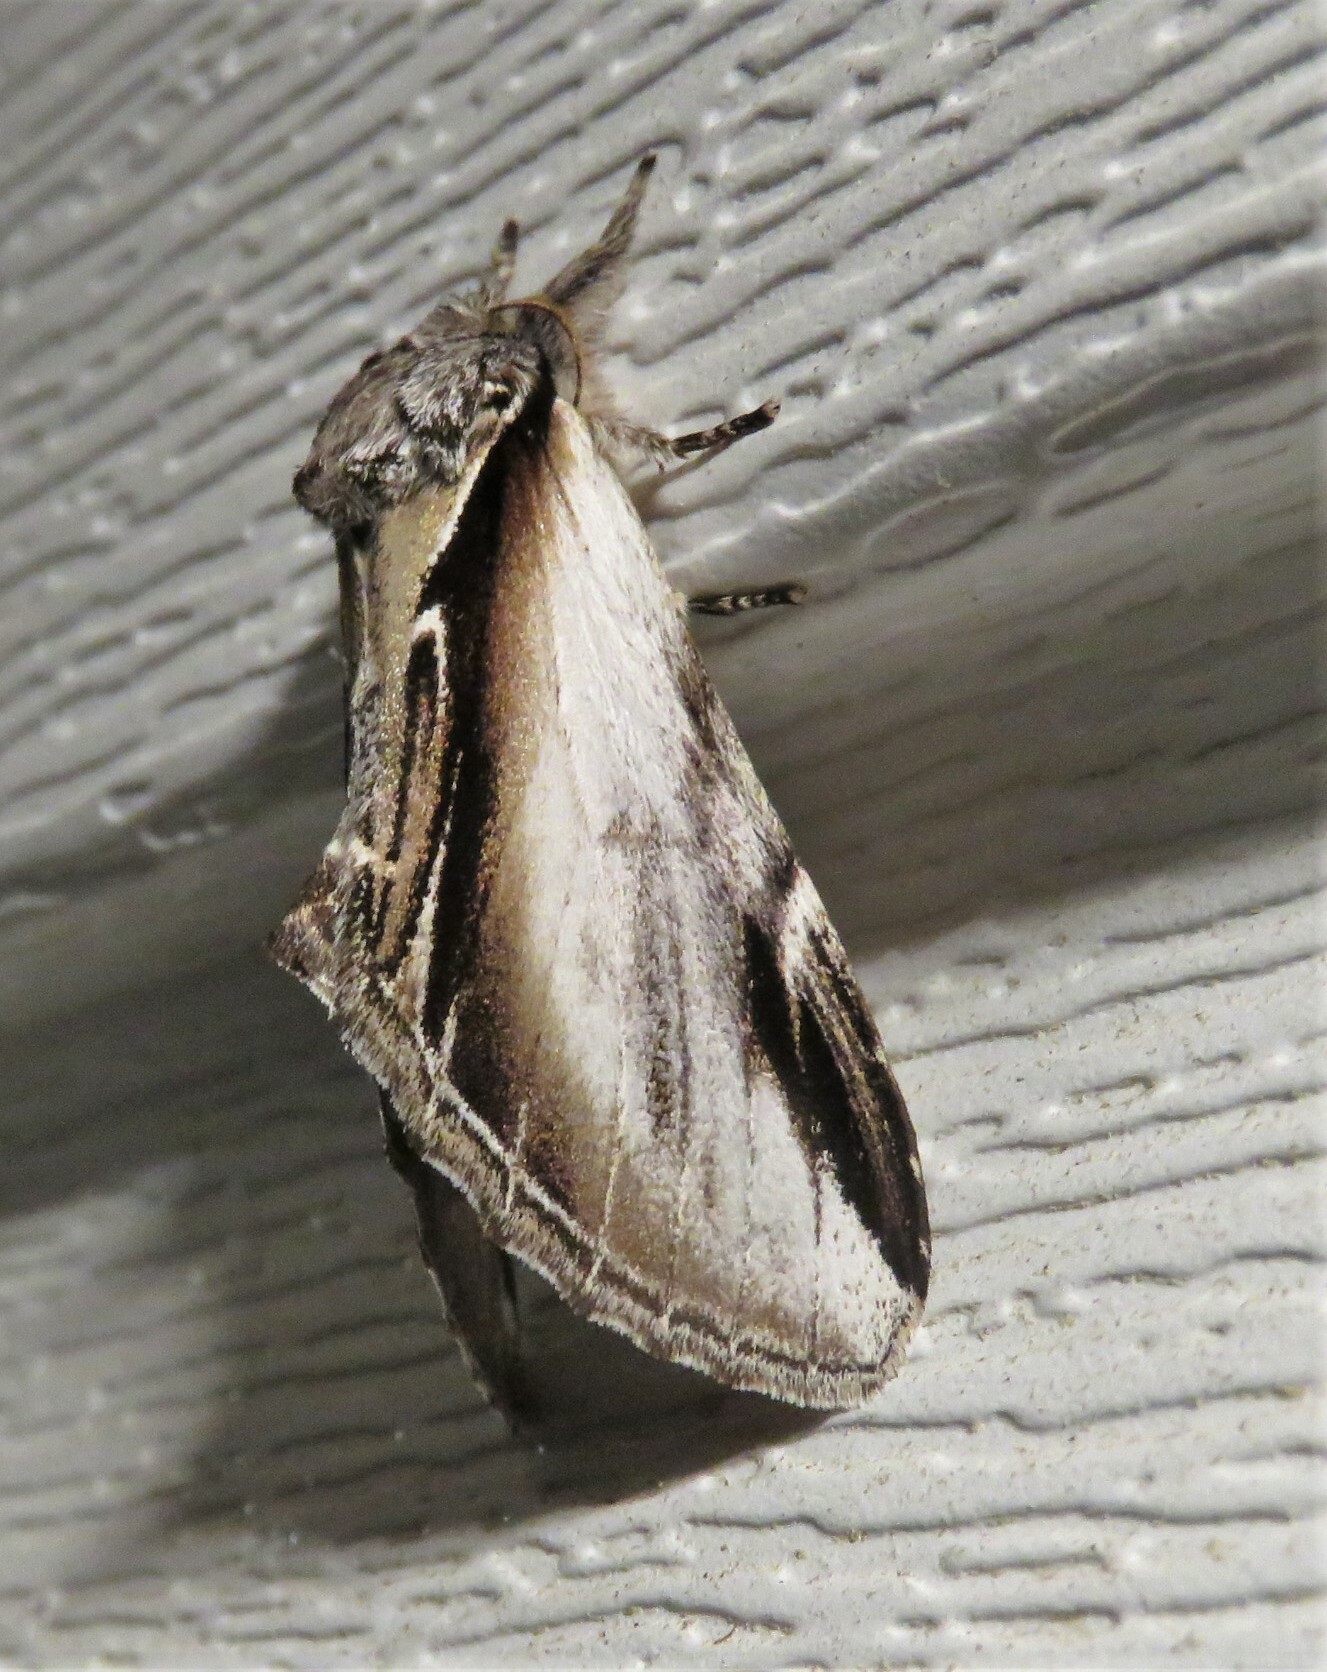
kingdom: Animalia
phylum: Arthropoda
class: Insecta
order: Lepidoptera
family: Notodontidae
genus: Pheosia
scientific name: Pheosia rimosa
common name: Black-rimmed prominent
